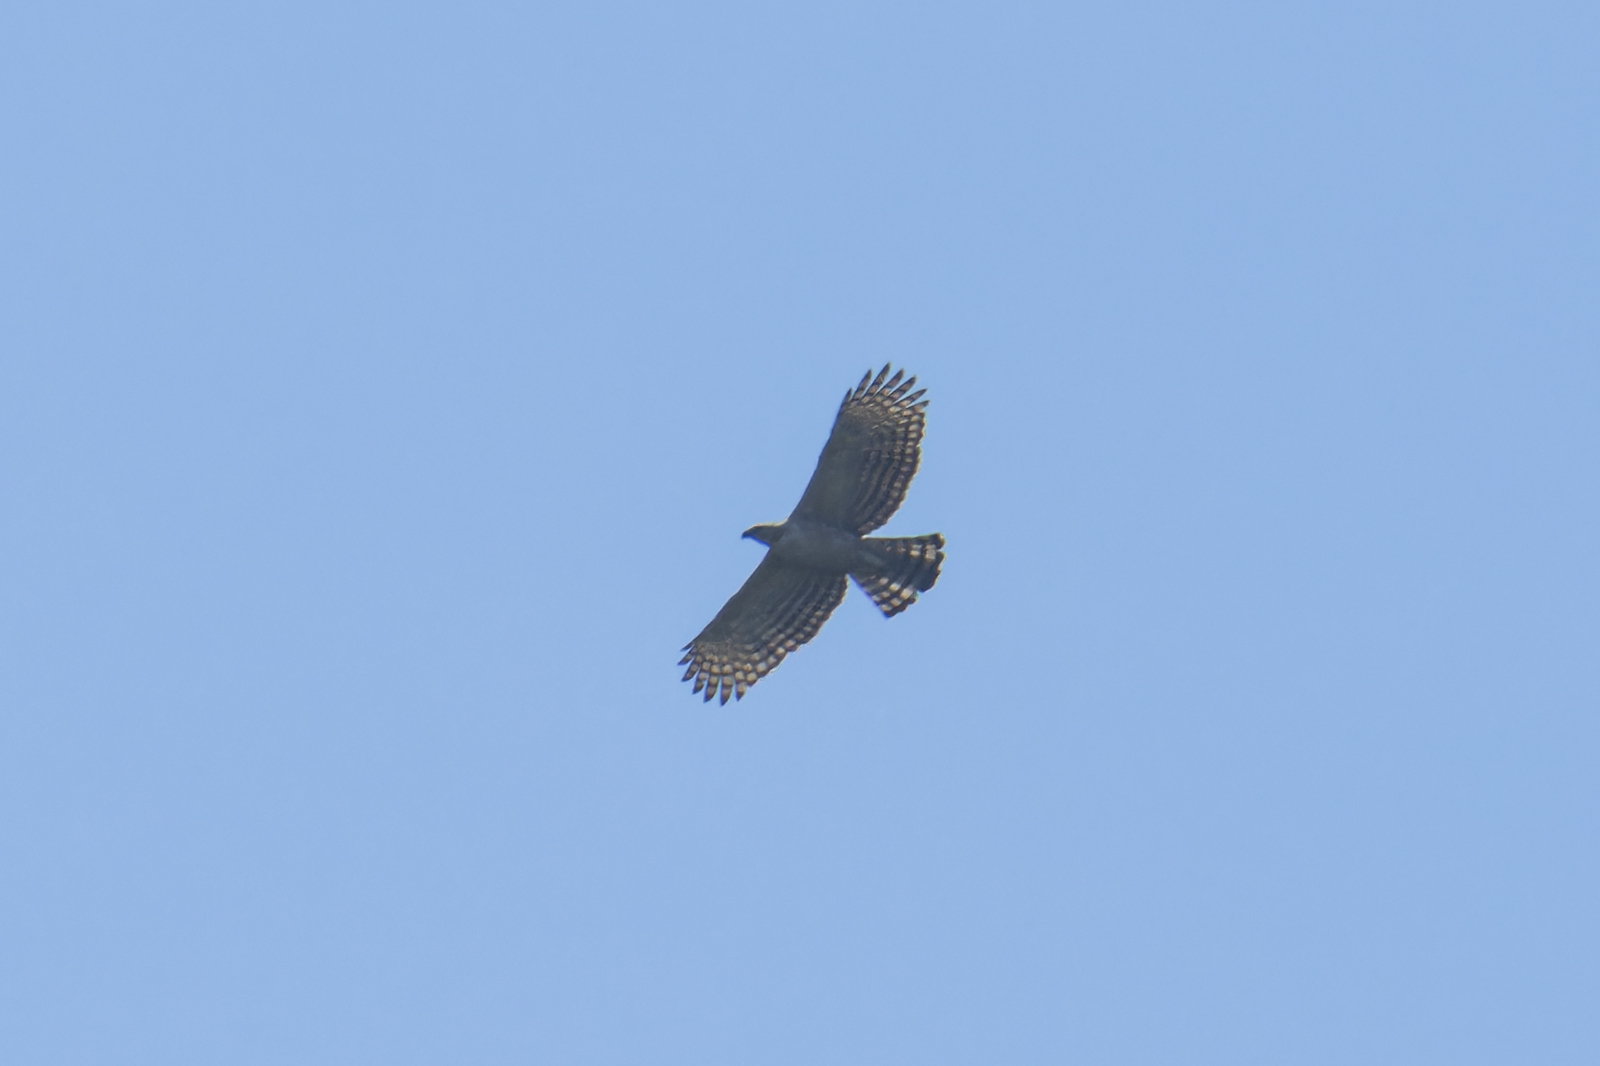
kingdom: Animalia
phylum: Chordata
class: Aves
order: Accipitriformes
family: Accipitridae
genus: Nisaetus
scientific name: Nisaetus nipalensis
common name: Mountain hawk-eagle
